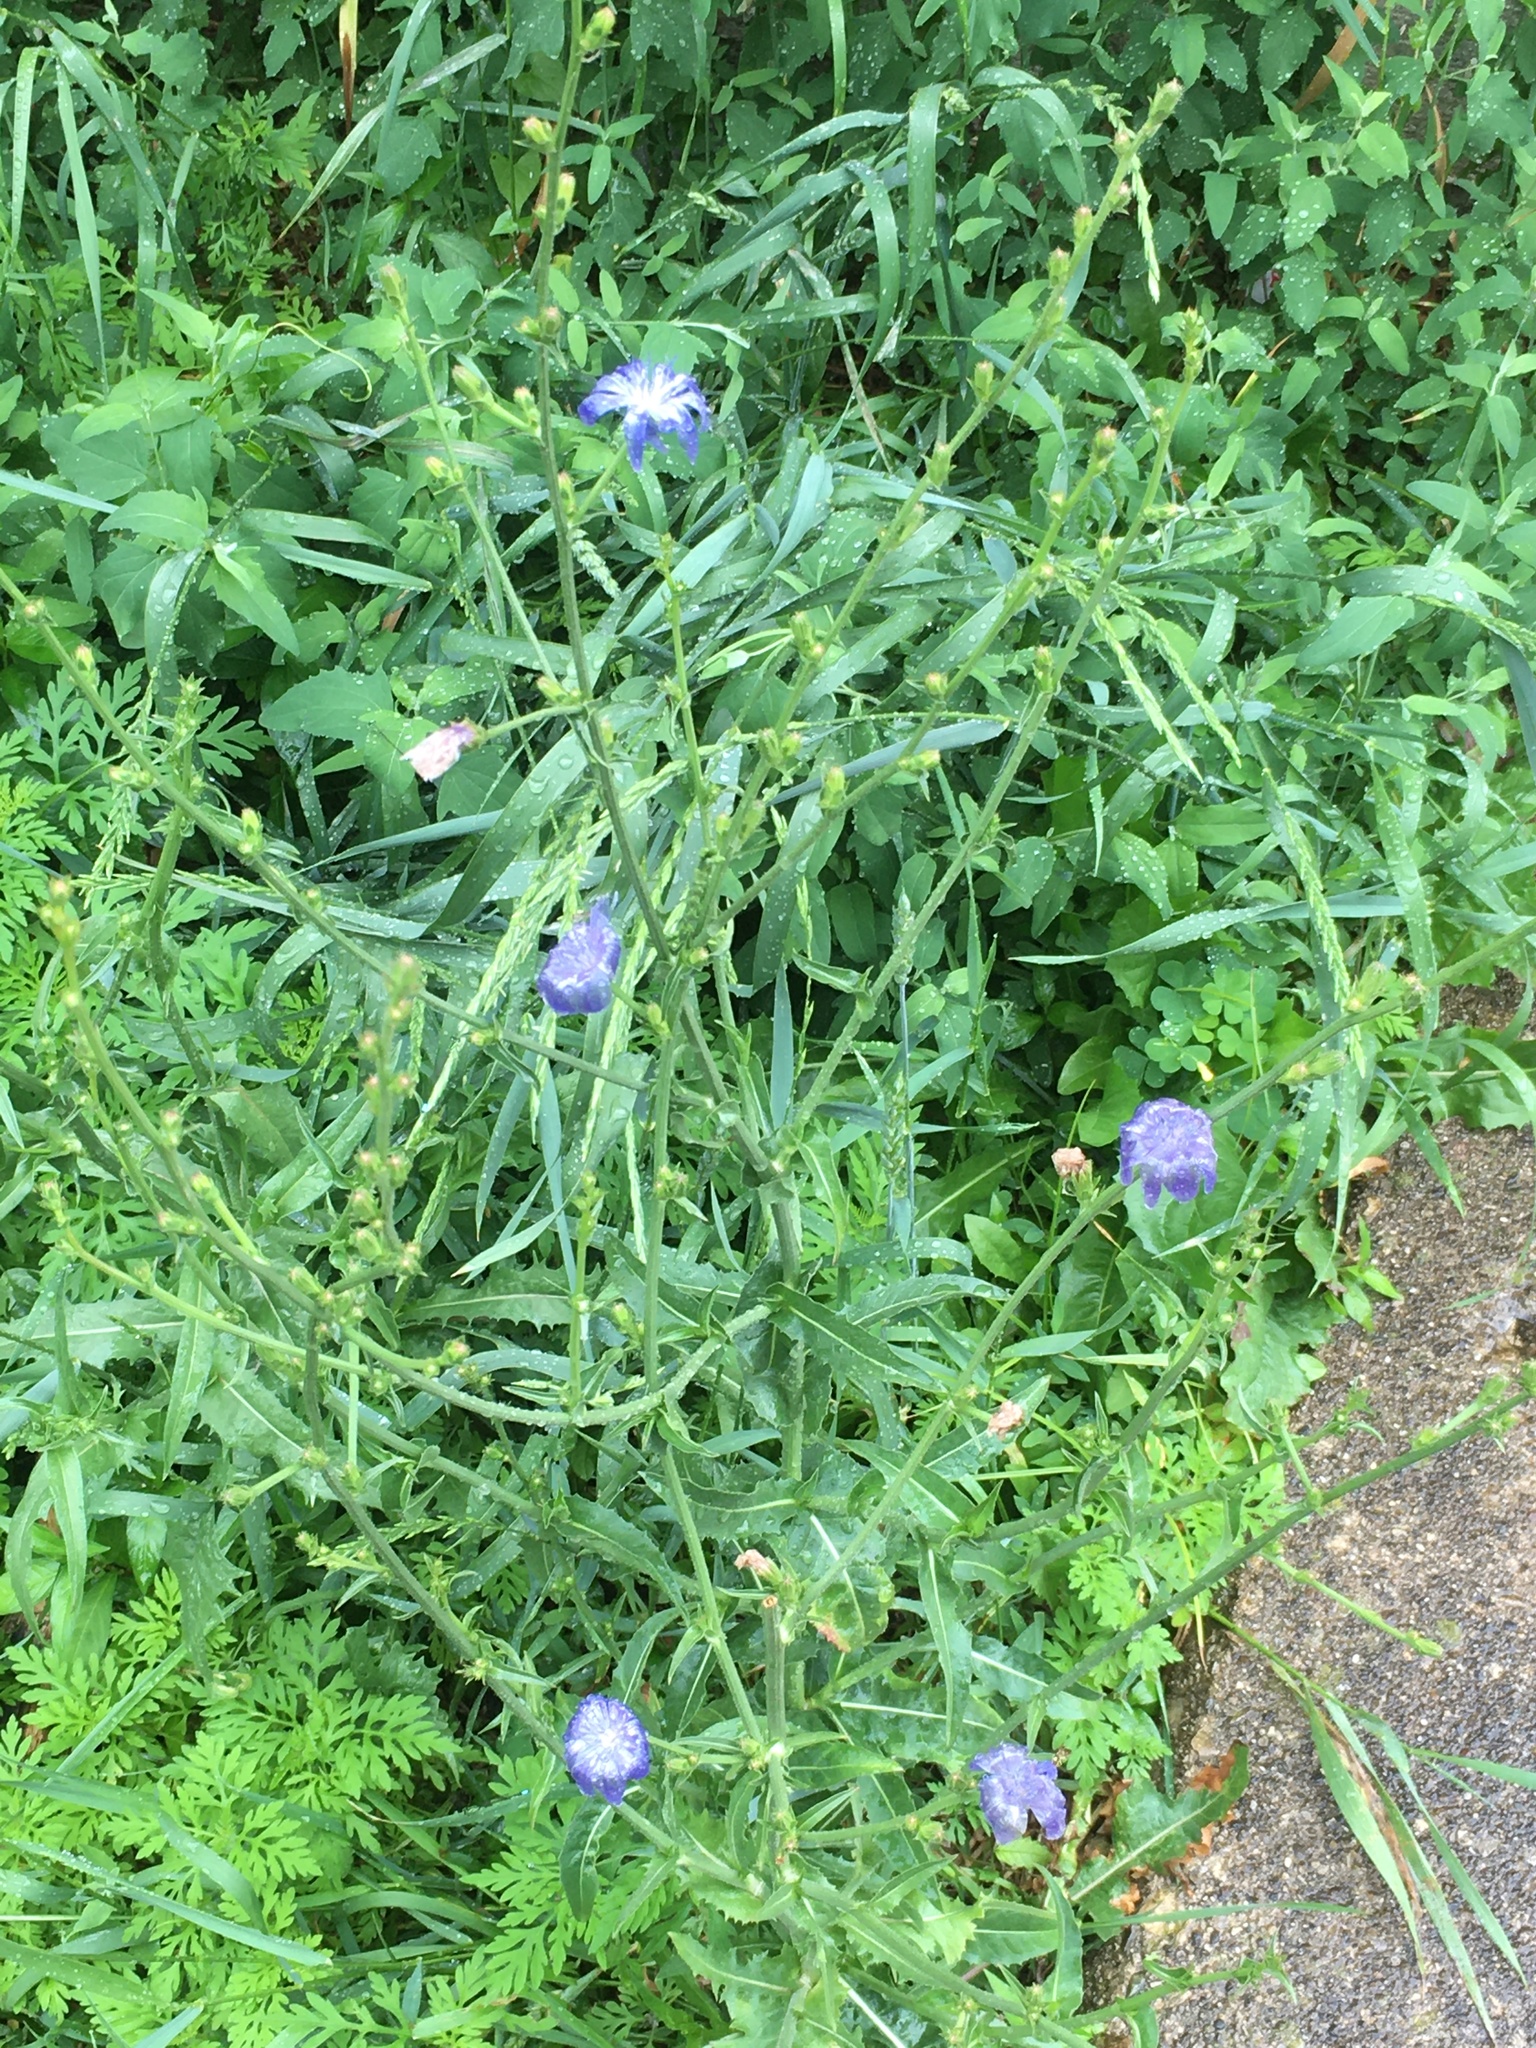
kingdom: Plantae
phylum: Tracheophyta
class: Magnoliopsida
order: Asterales
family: Asteraceae
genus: Cichorium
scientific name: Cichorium intybus
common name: Chicory
